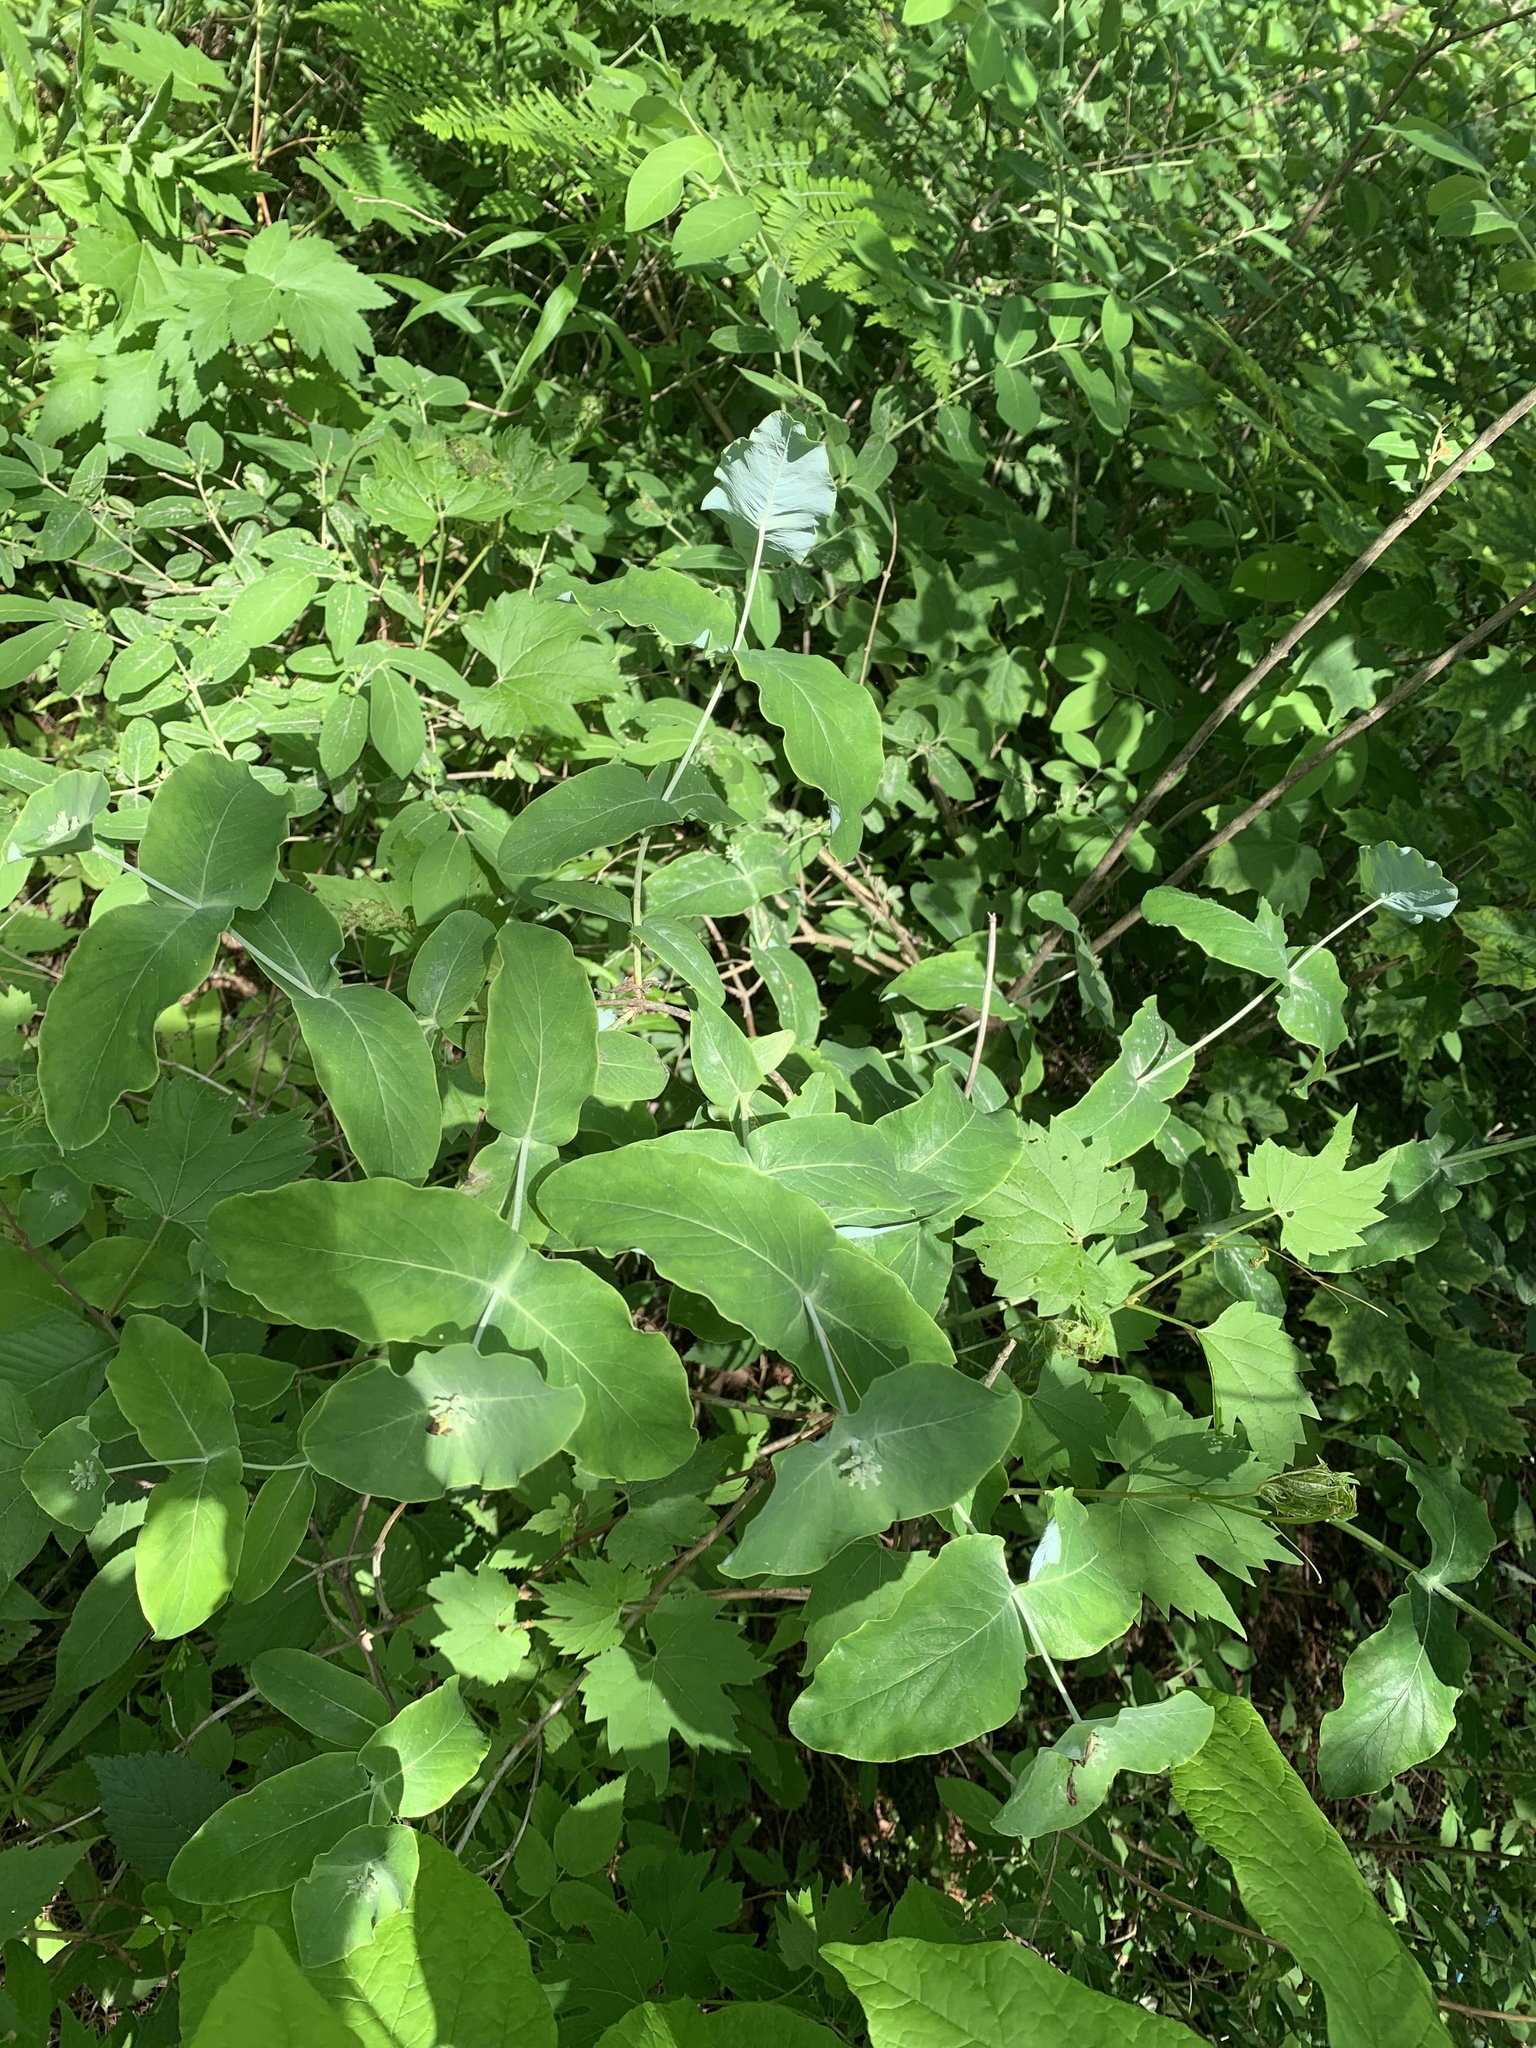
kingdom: Plantae
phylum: Tracheophyta
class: Magnoliopsida
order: Dipsacales
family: Caprifoliaceae
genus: Lonicera
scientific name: Lonicera dioica
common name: Limber honeysuckle
